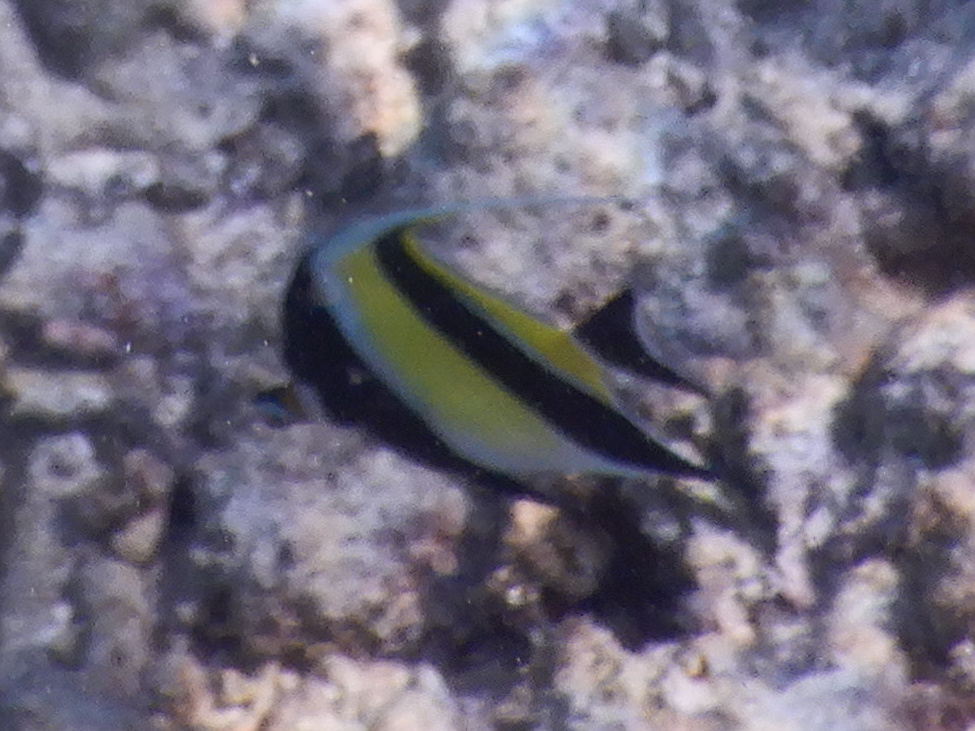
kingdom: Animalia
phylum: Chordata
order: Perciformes
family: Zanclidae
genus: Zanclus
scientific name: Zanclus cornutus
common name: Moorish idol
